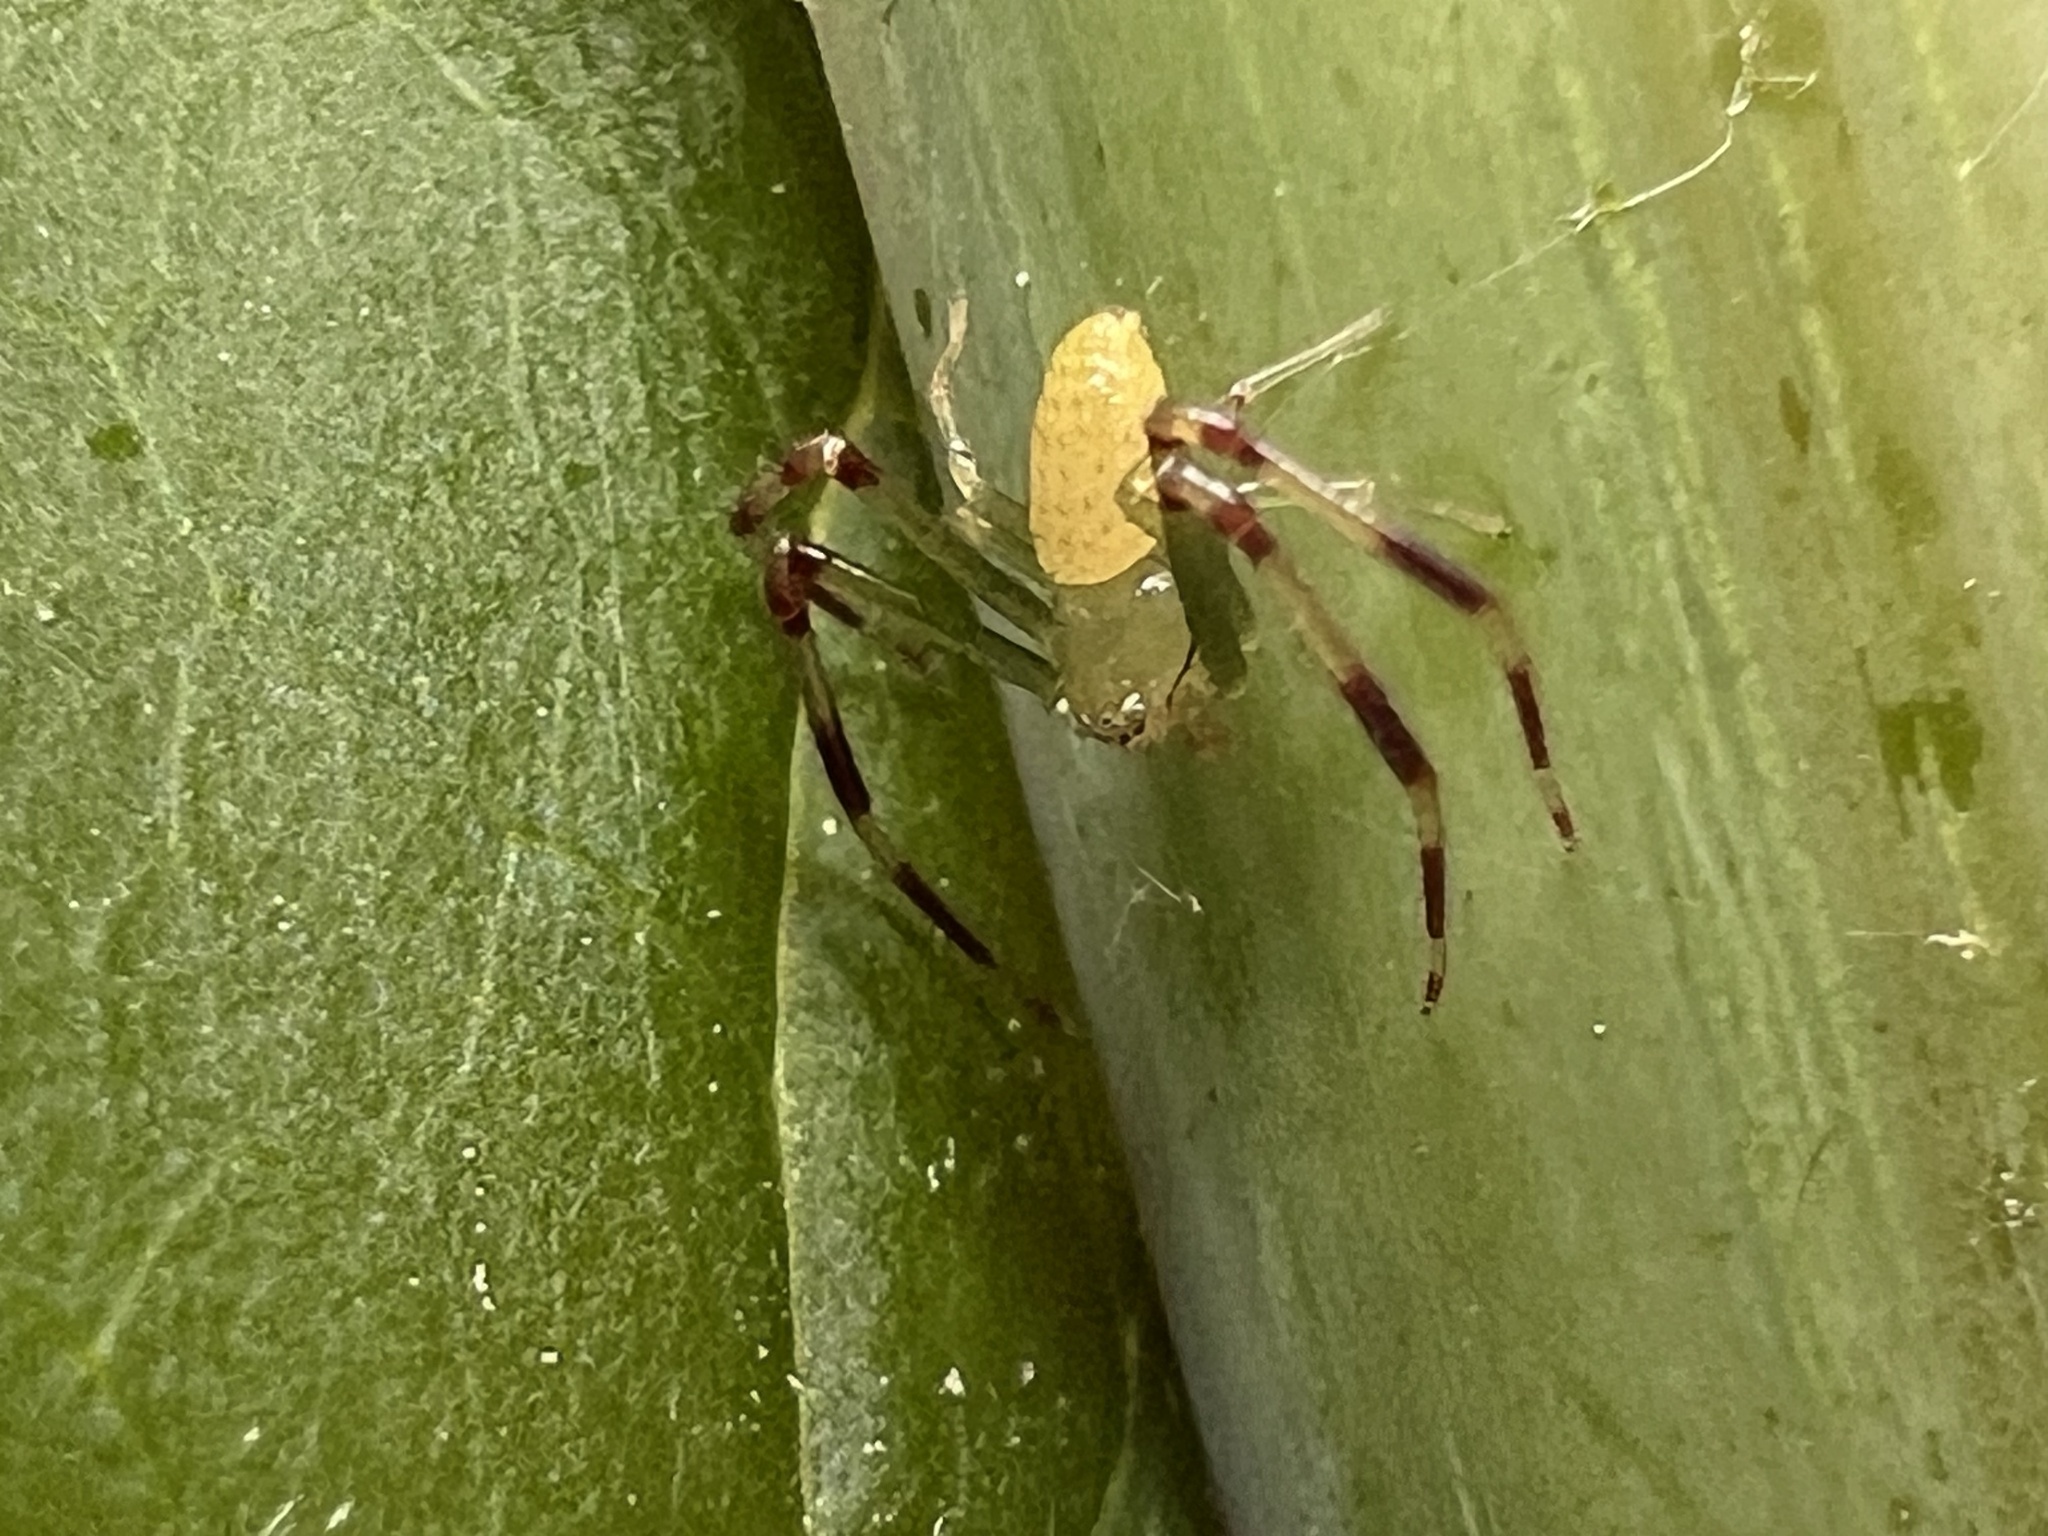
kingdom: Animalia
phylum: Arthropoda
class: Arachnida
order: Araneae
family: Thomisidae
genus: Misumessus
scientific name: Misumessus oblongus
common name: American green crab spider
